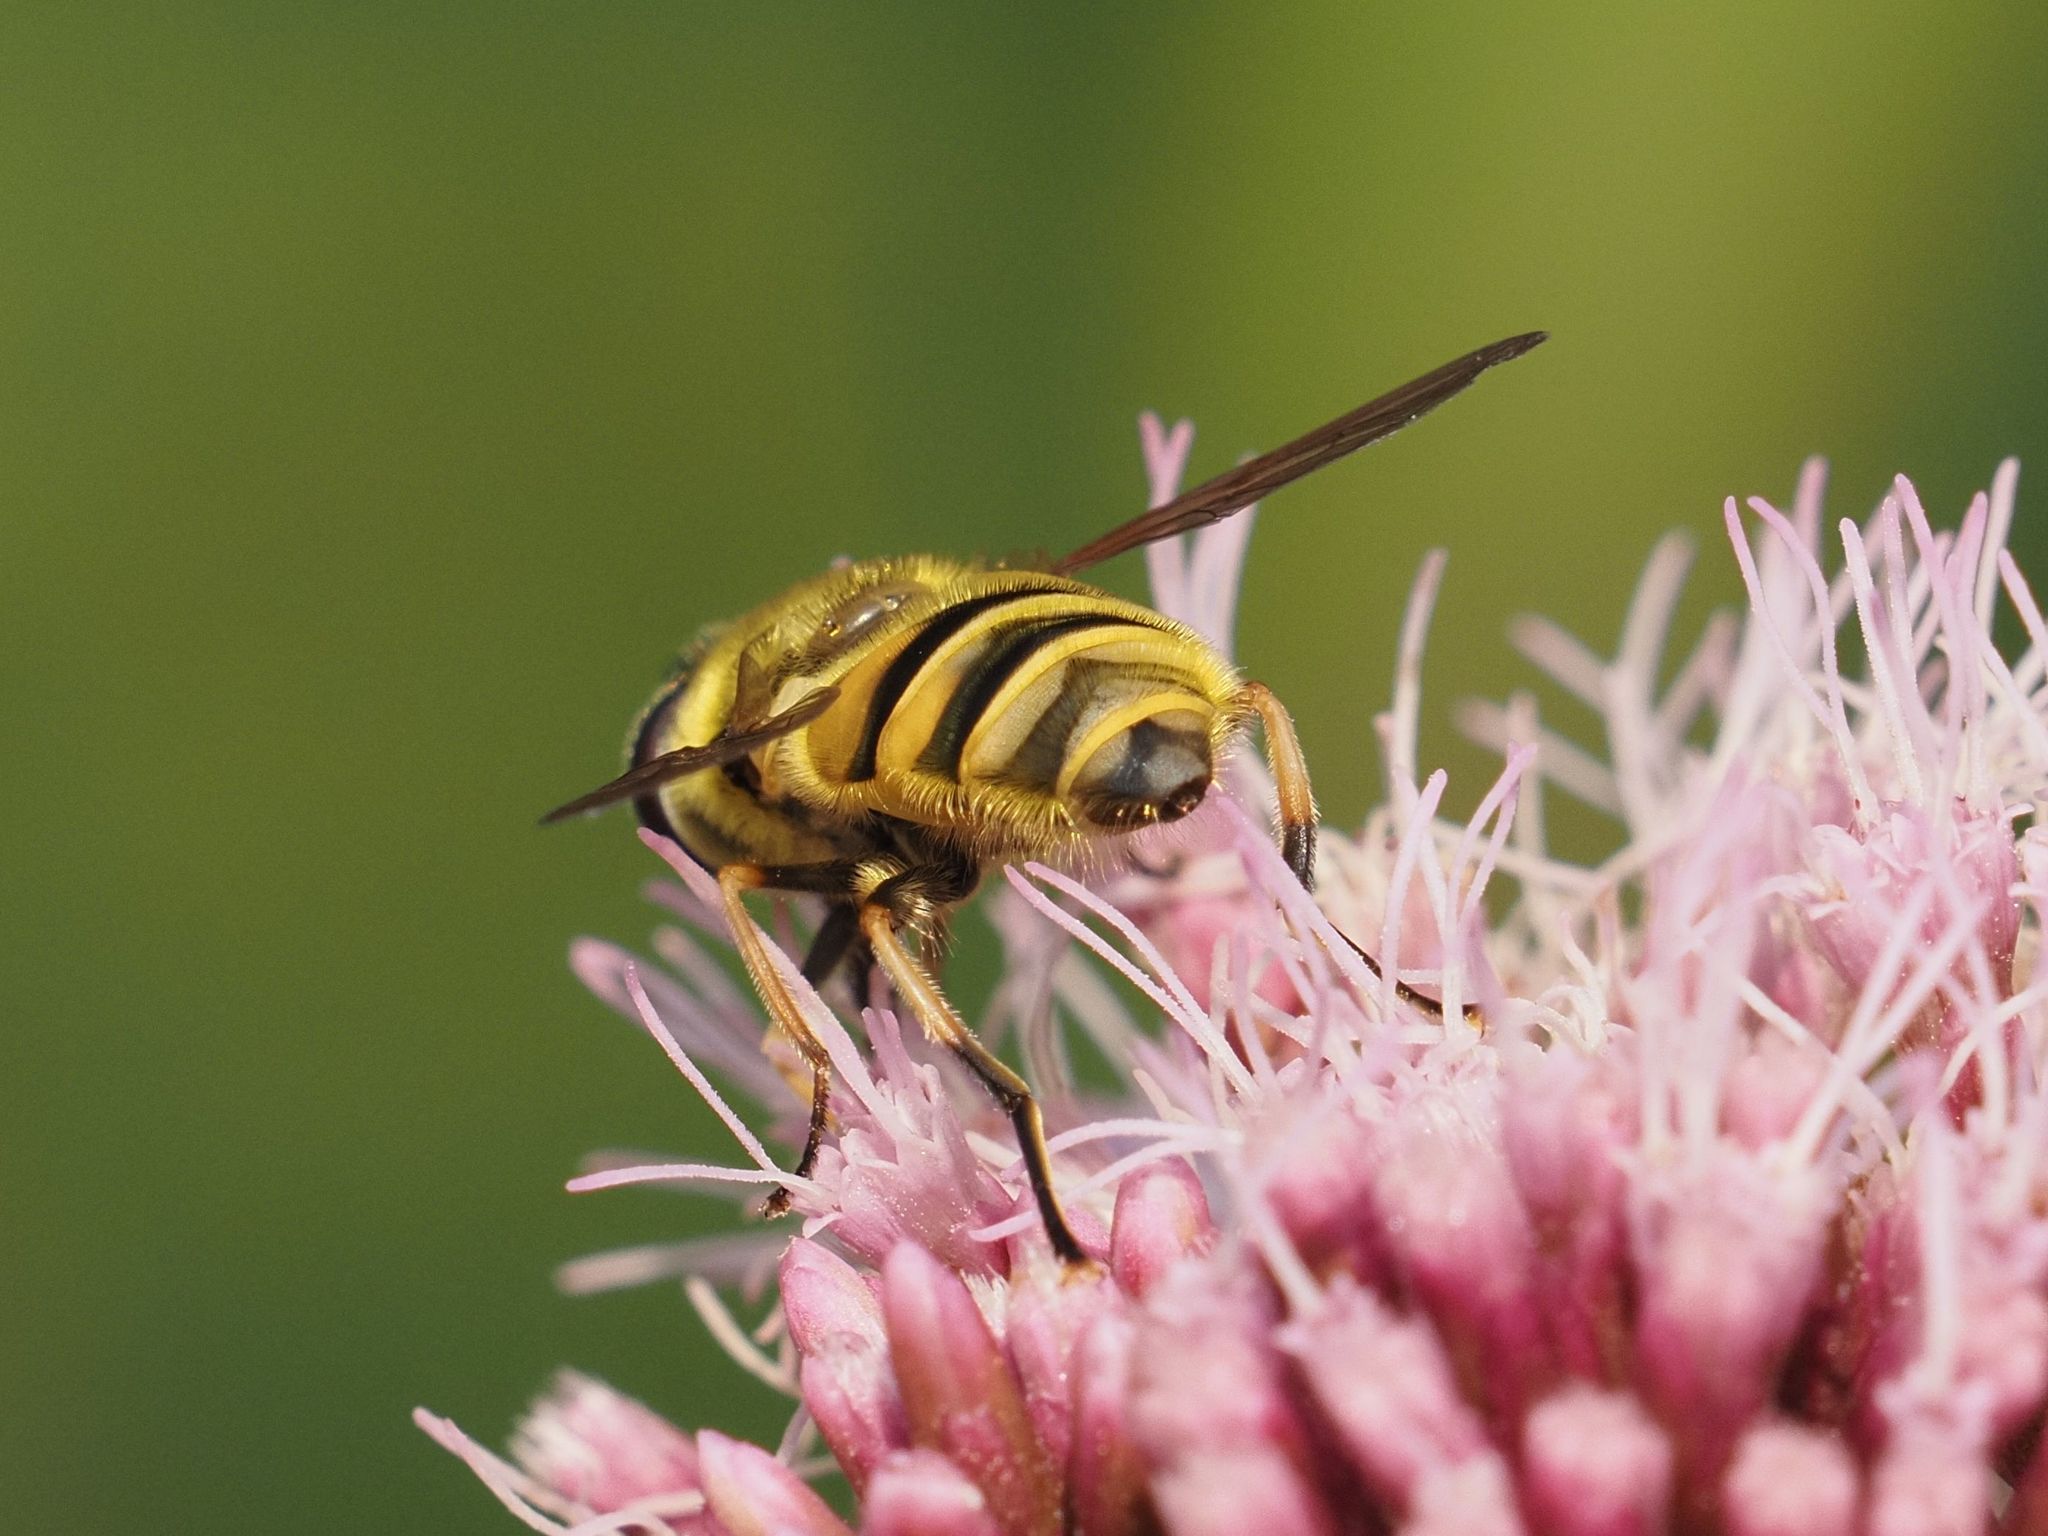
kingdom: Animalia
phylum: Arthropoda
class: Insecta
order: Diptera
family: Syrphidae
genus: Myathropa
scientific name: Myathropa florea
